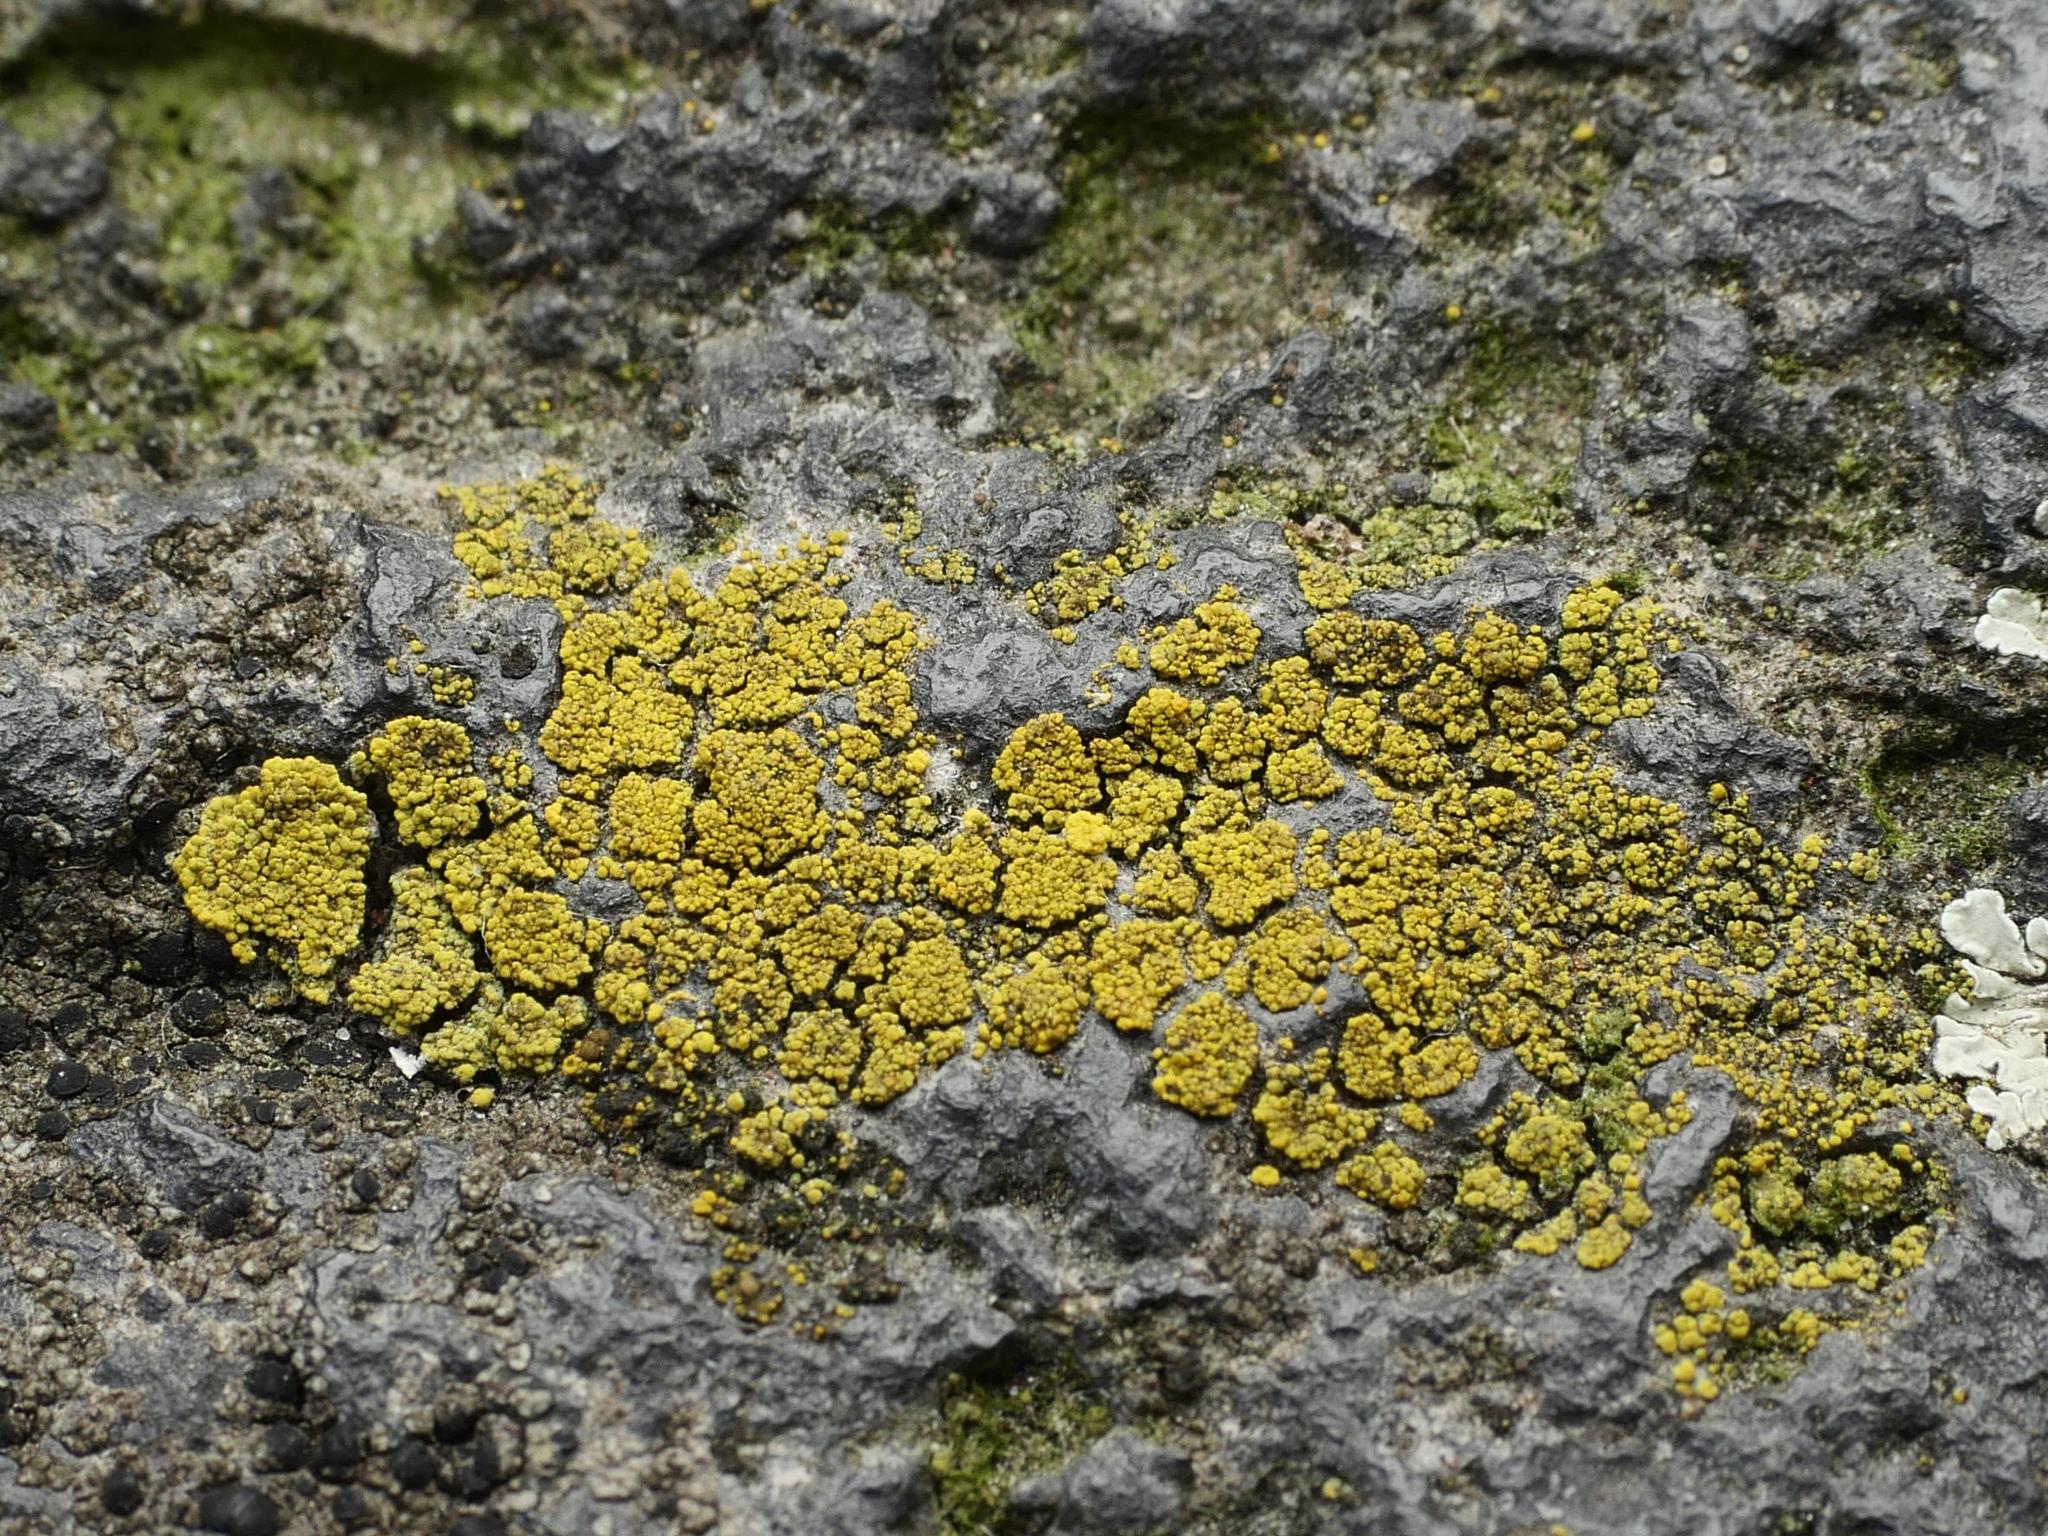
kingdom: Fungi
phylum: Ascomycota
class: Candelariomycetes
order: Candelariales
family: Candelariaceae
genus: Candelariella
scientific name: Candelariella vitellina
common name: Common goldspeck
